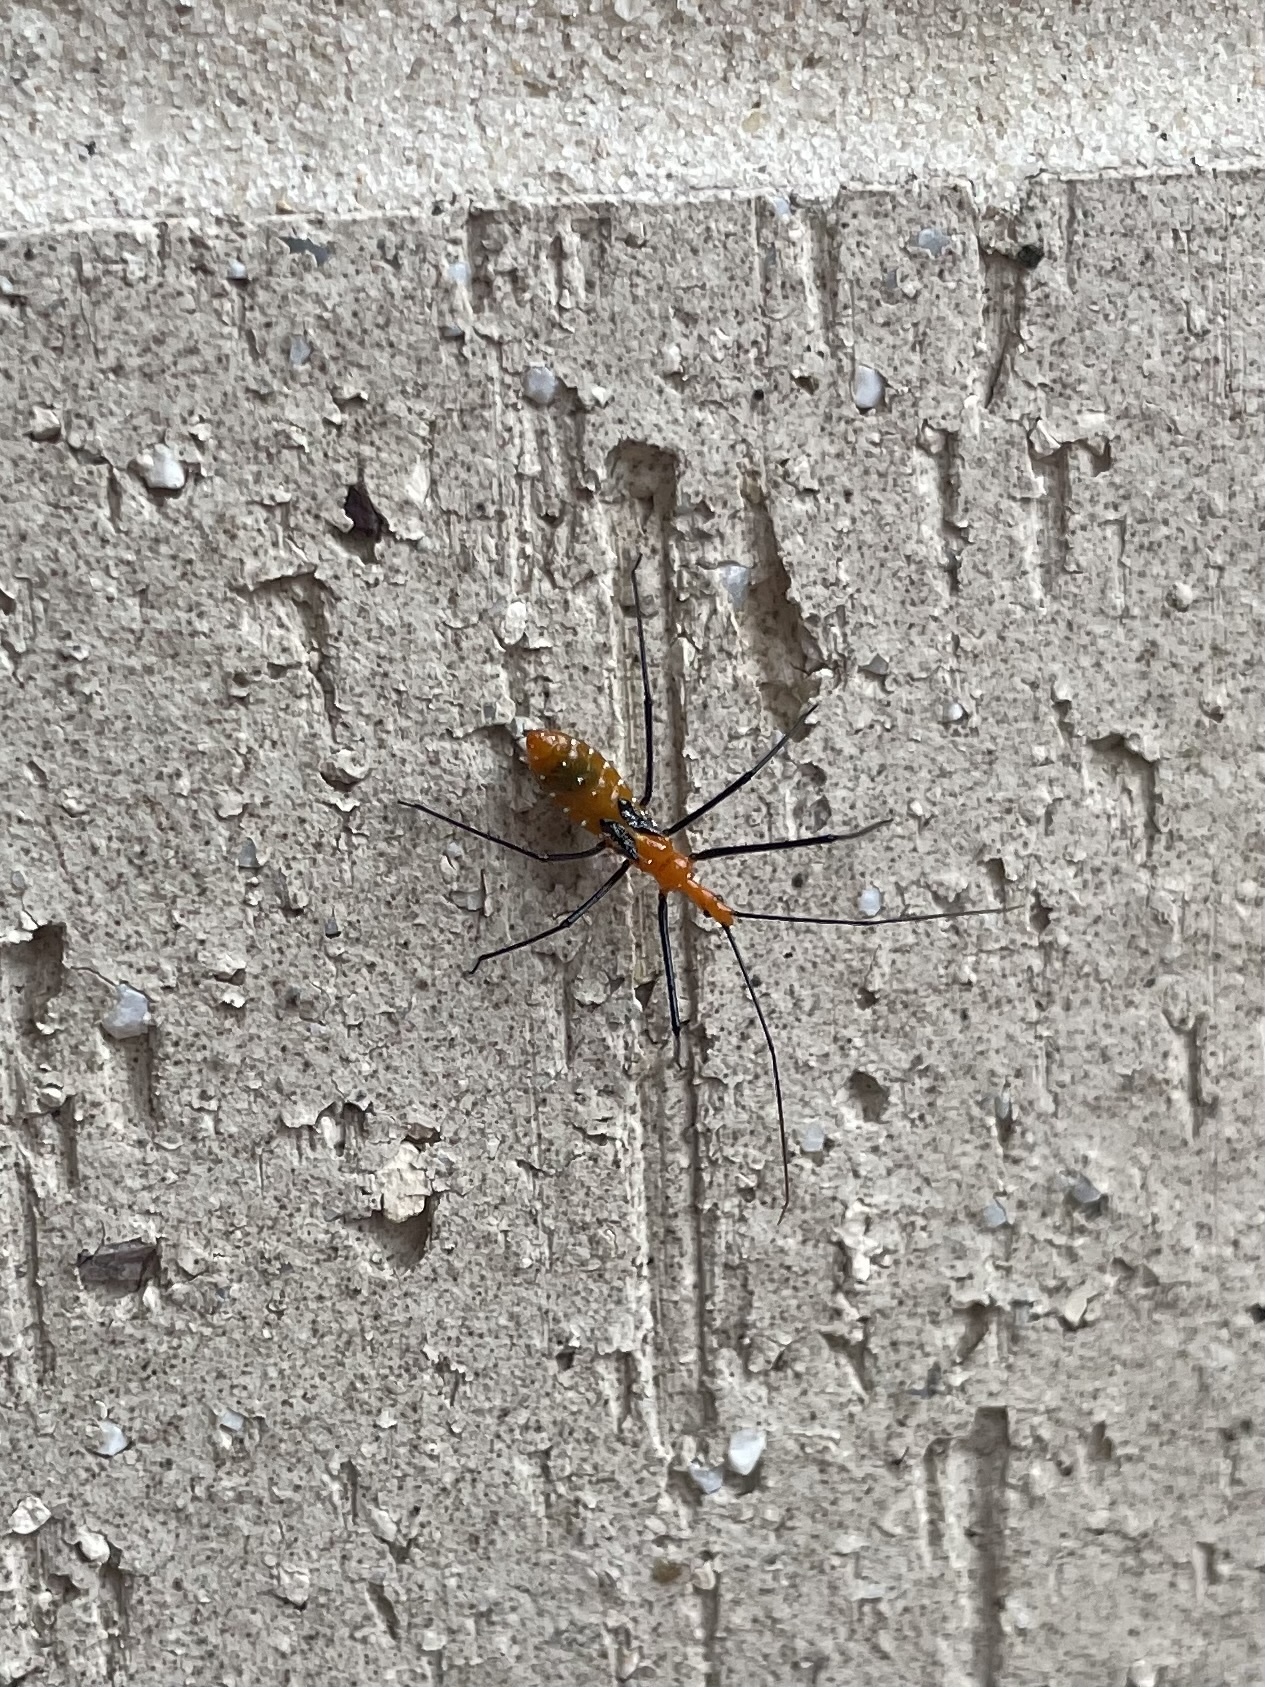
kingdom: Animalia
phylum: Arthropoda
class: Insecta
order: Hemiptera
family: Reduviidae
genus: Zelus
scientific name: Zelus longipes
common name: Milkweed assassin bug
